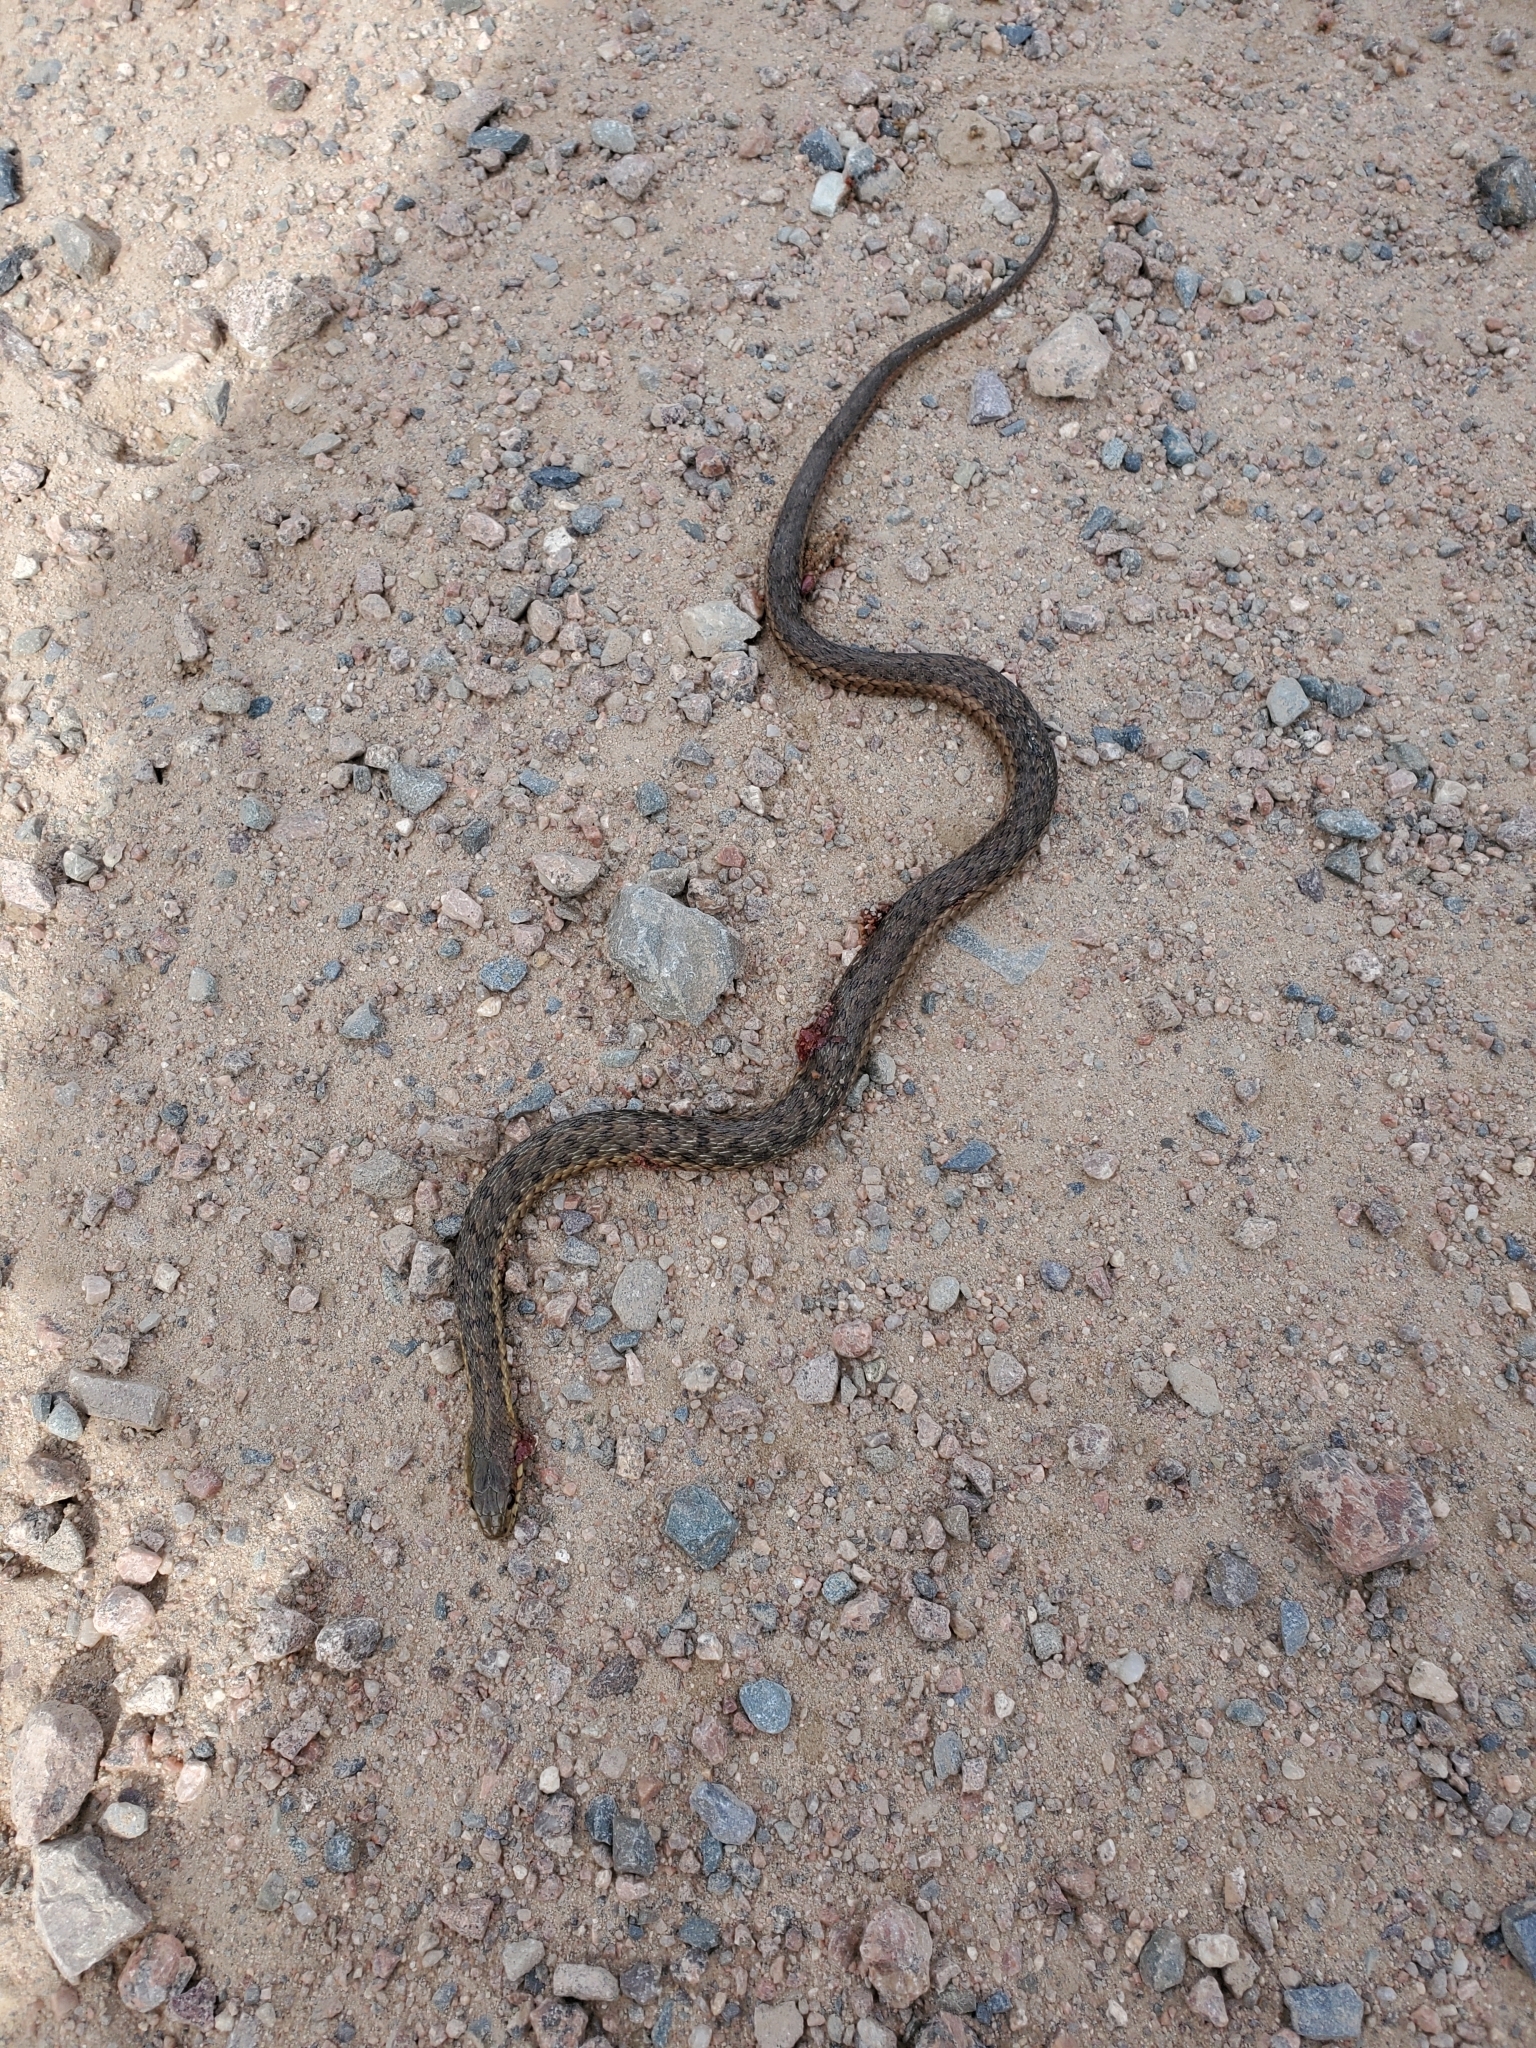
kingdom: Animalia
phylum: Chordata
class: Squamata
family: Colubridae
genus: Thamnophis
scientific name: Thamnophis sirtalis
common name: Common garter snake
